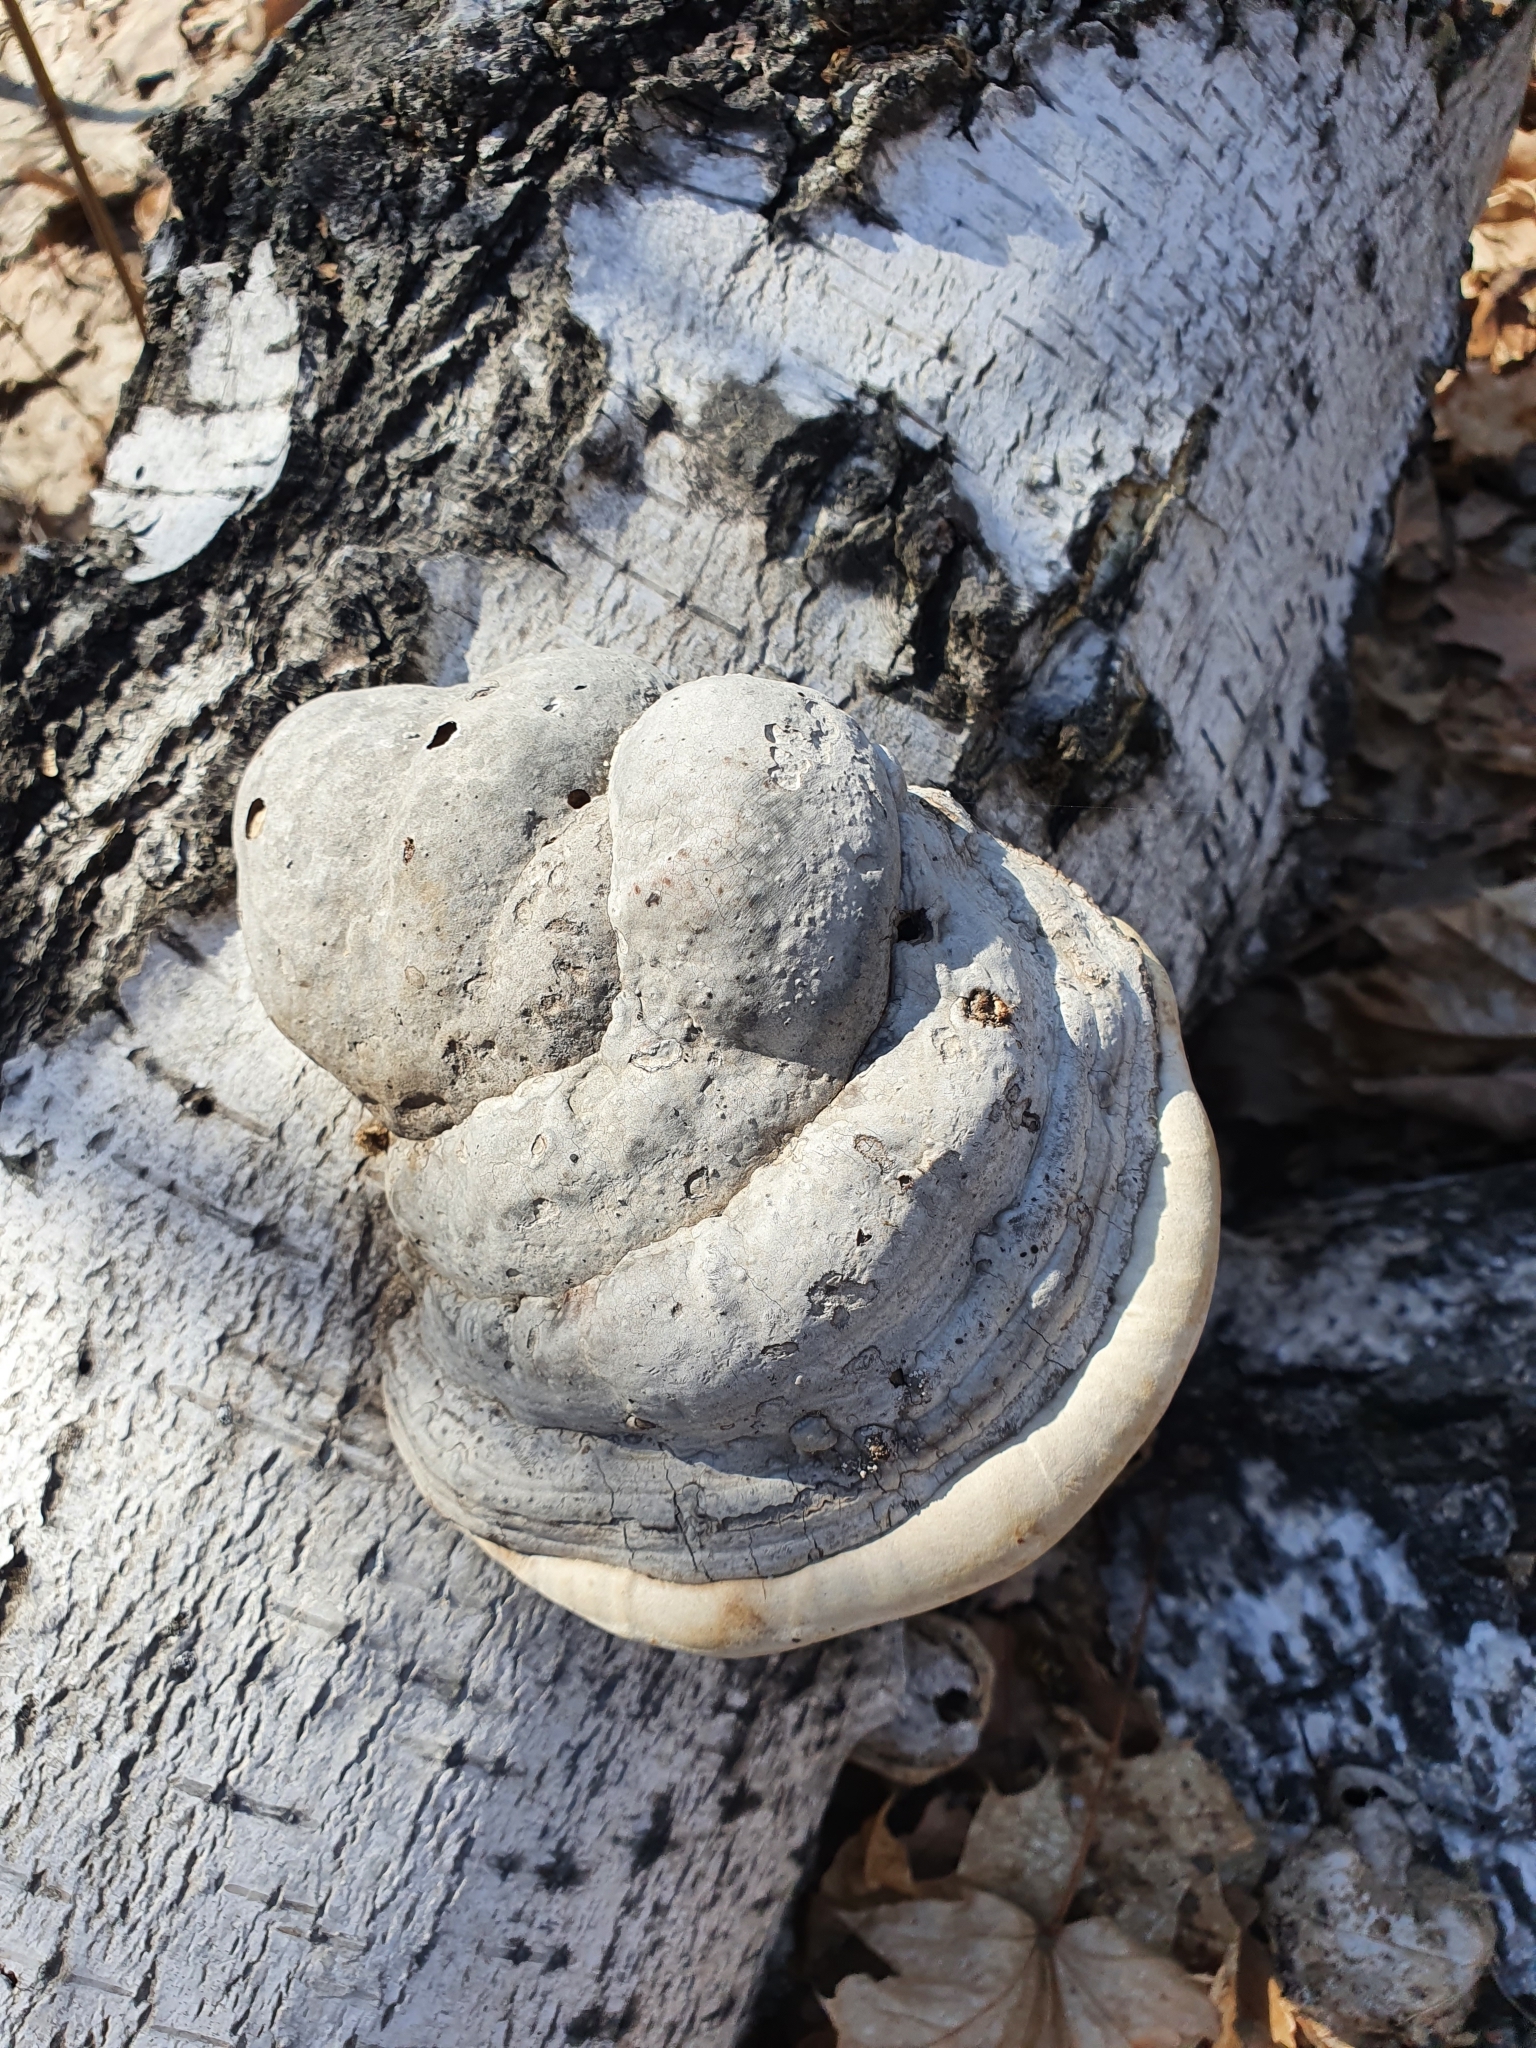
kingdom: Fungi
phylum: Basidiomycota
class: Agaricomycetes
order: Polyporales
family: Polyporaceae
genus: Fomes
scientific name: Fomes fomentarius
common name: Hoof fungus
